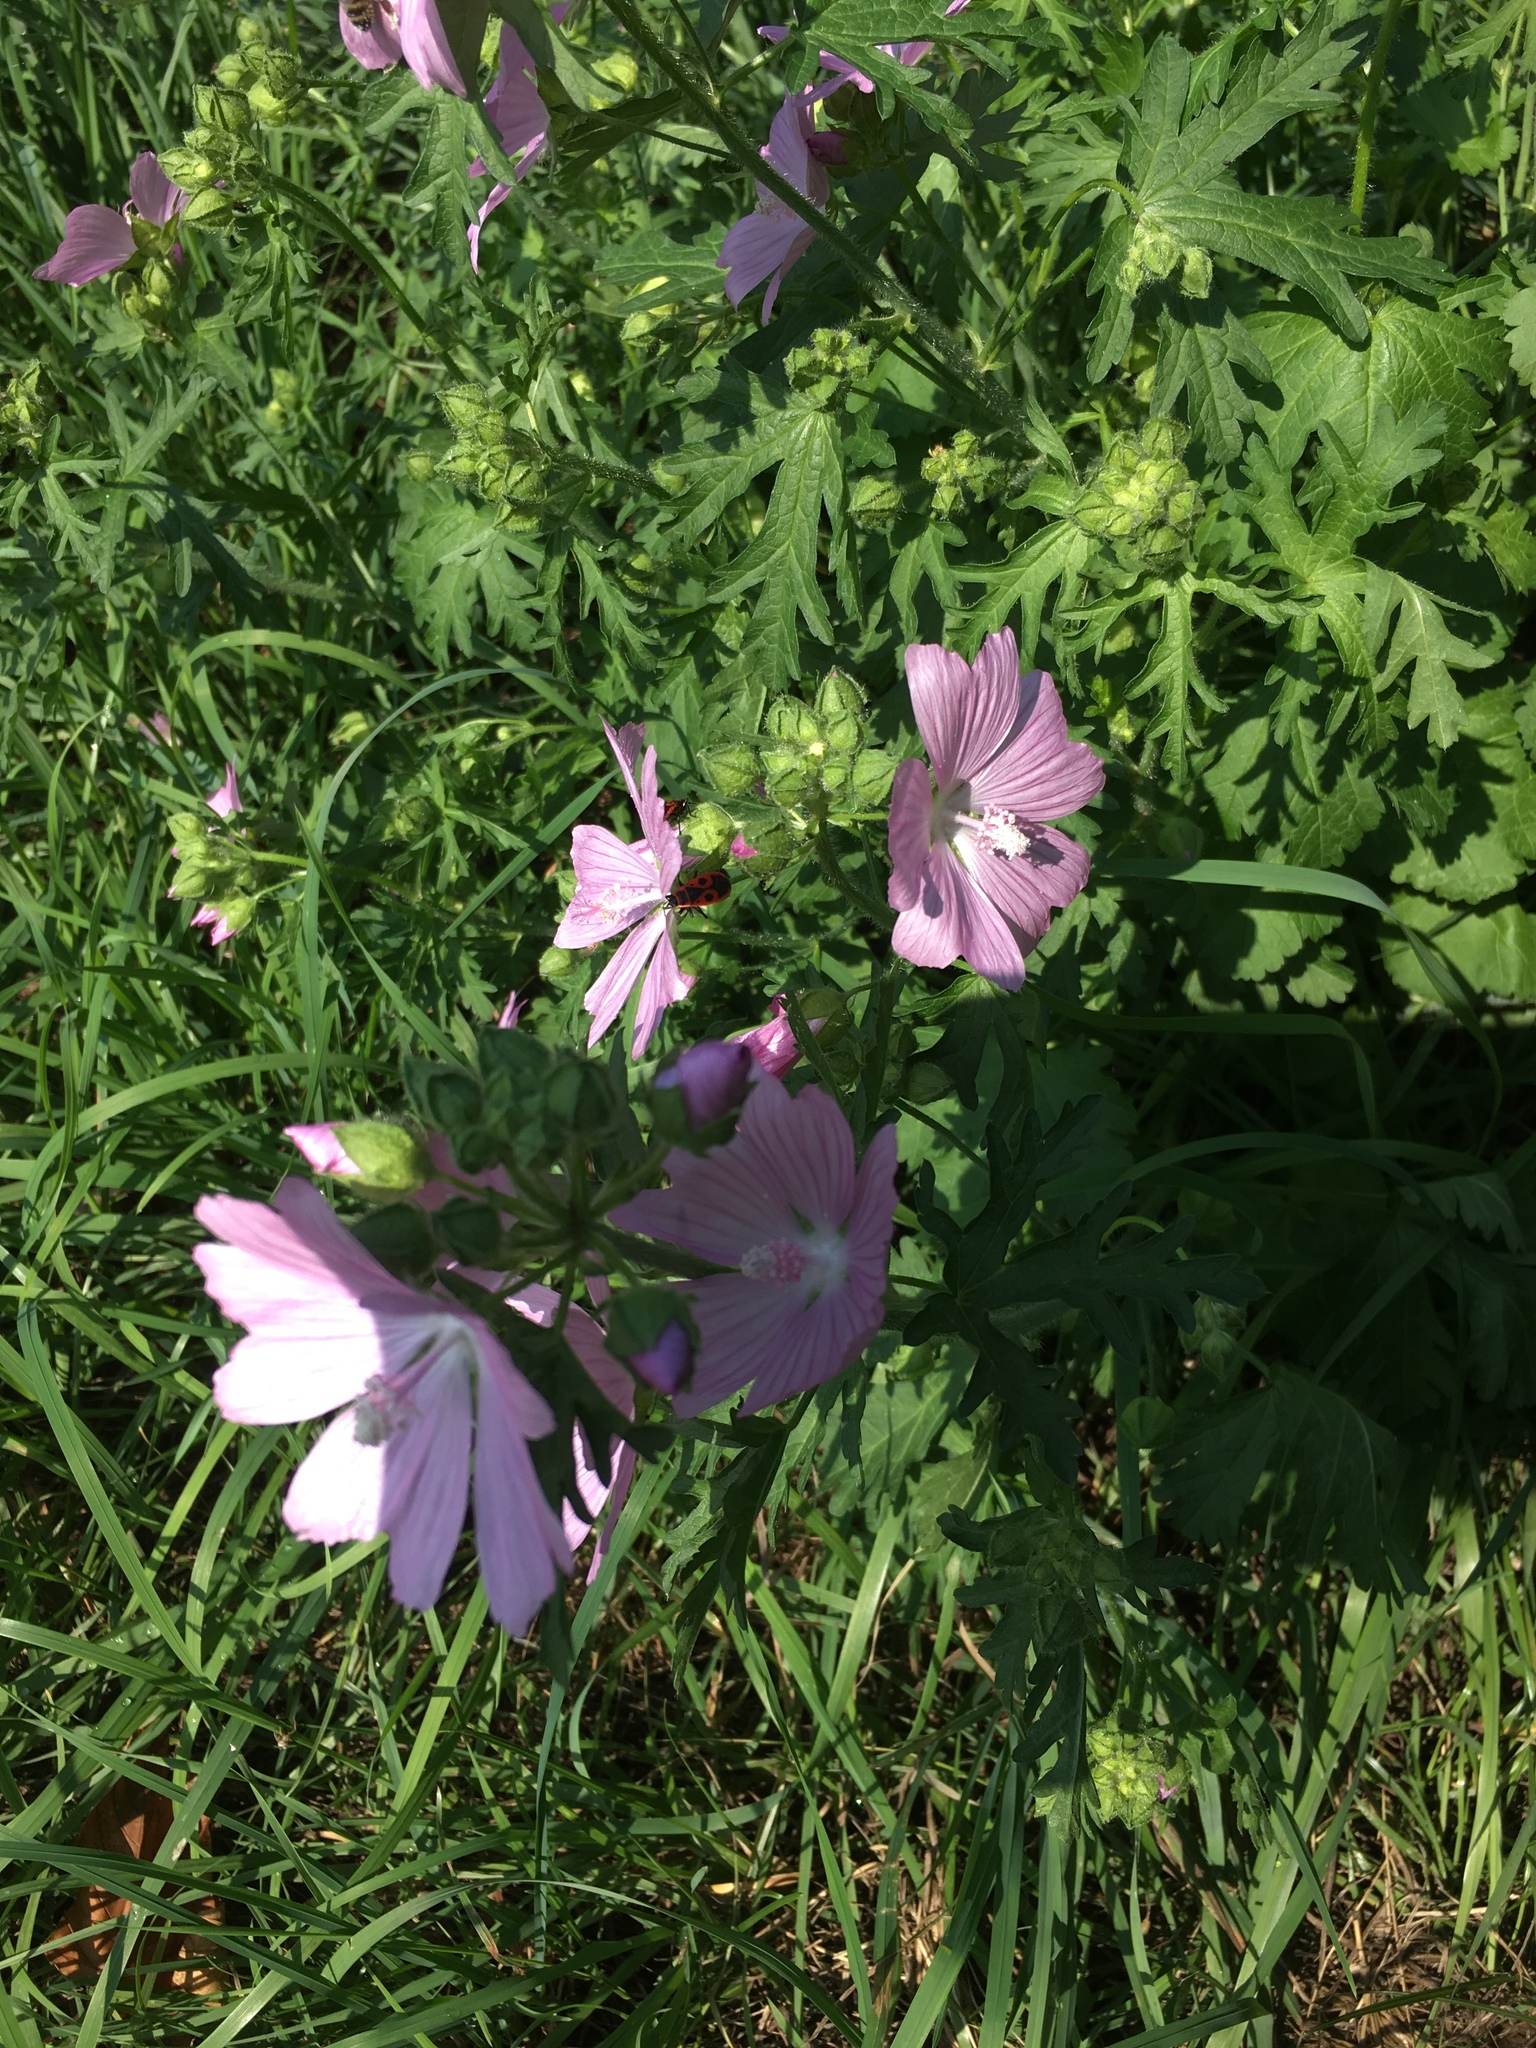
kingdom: Plantae
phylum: Tracheophyta
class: Magnoliopsida
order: Malvales
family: Malvaceae
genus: Malva
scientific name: Malva moschata
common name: Musk mallow
